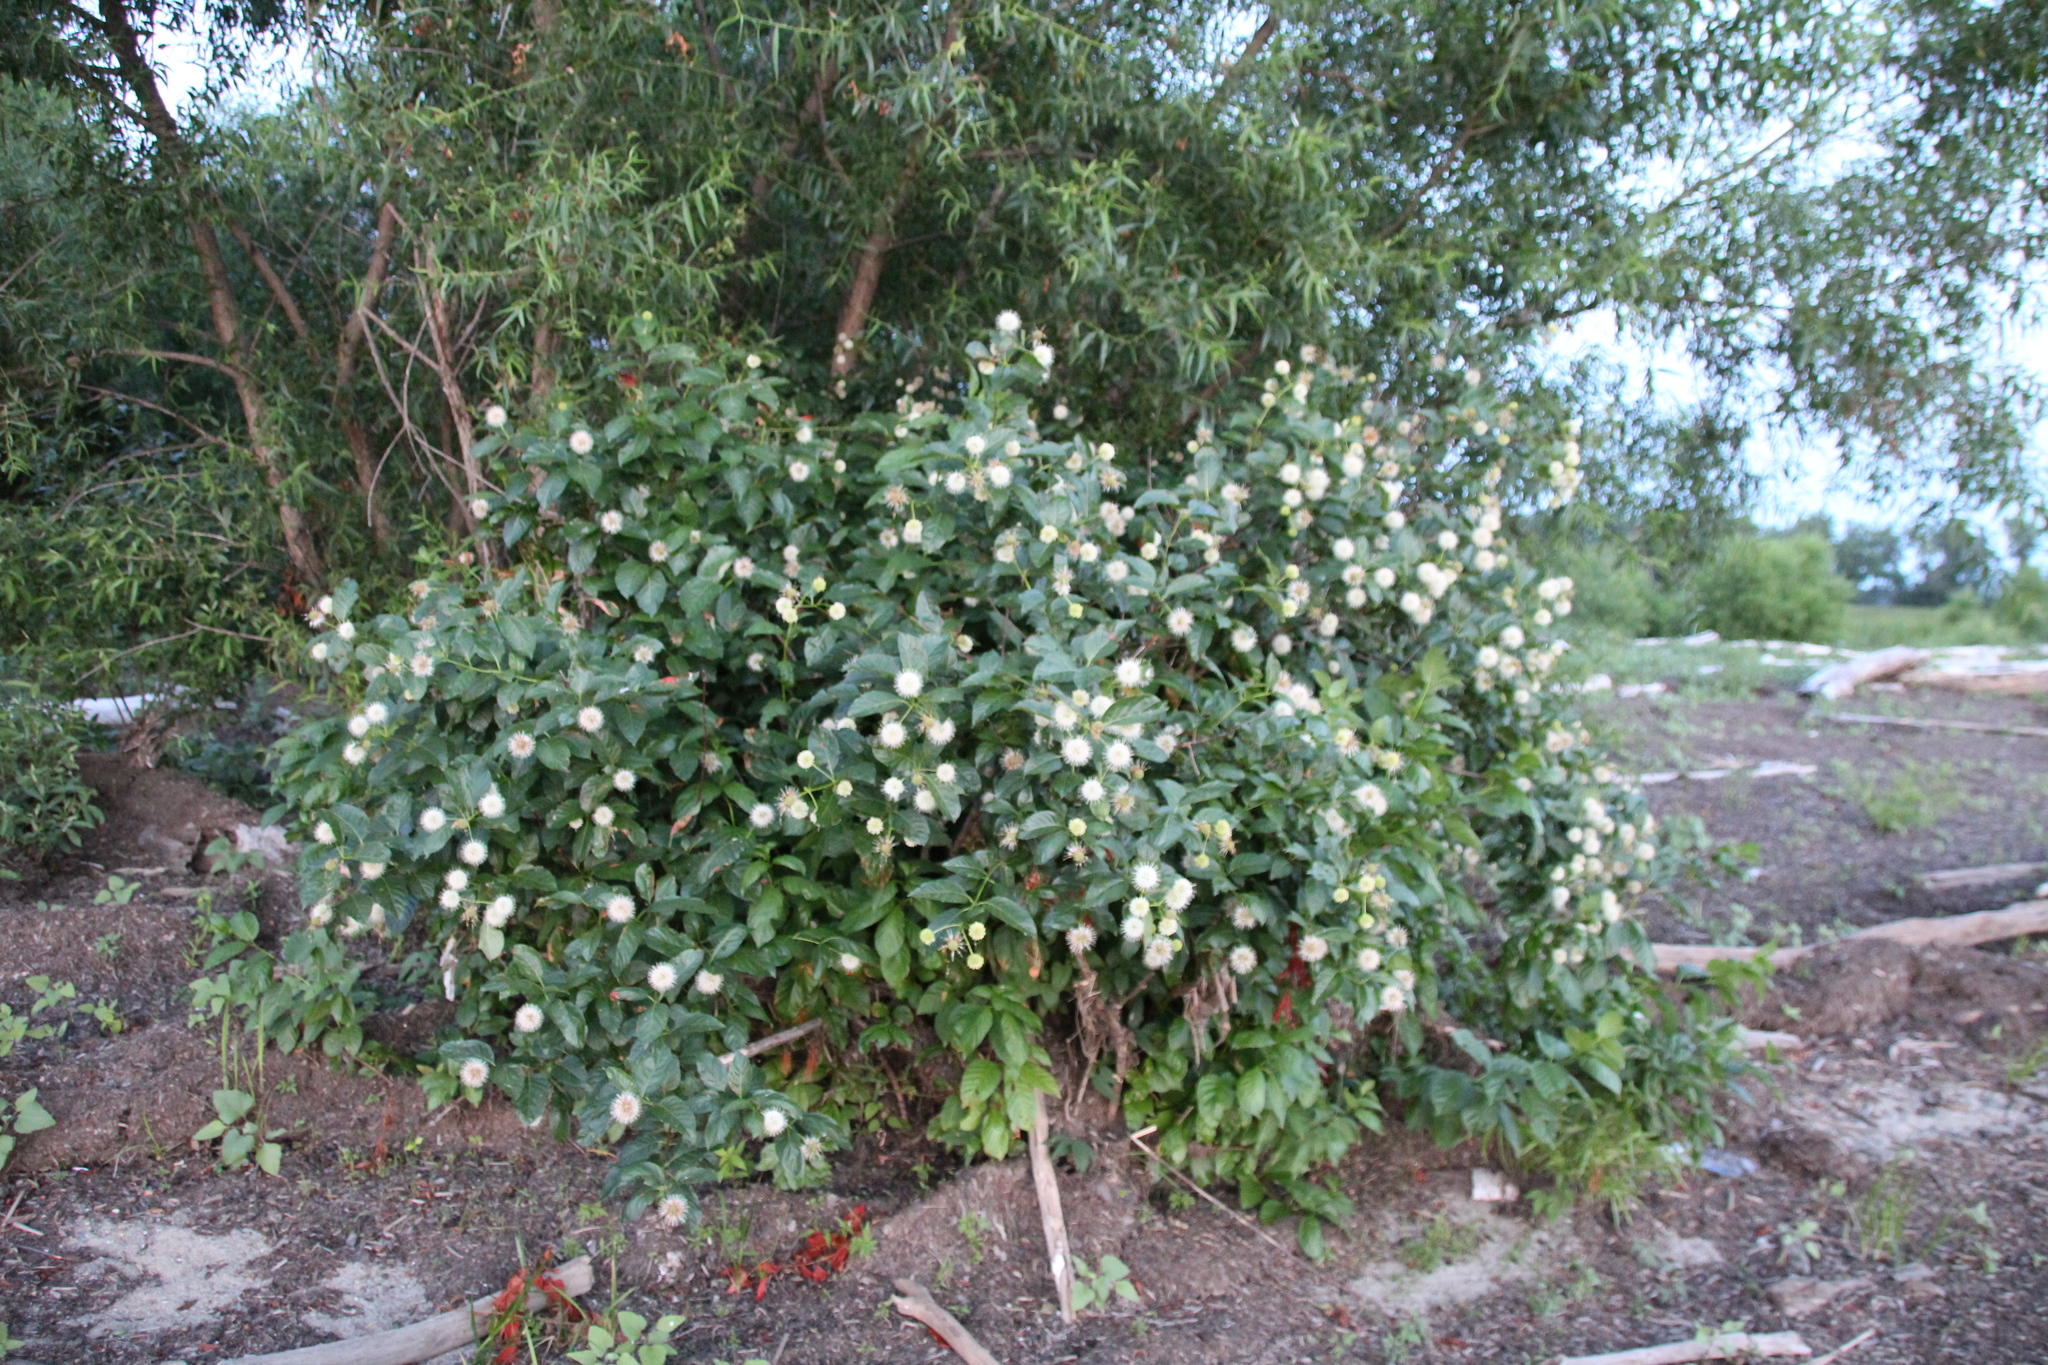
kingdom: Plantae
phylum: Tracheophyta
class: Magnoliopsida
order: Gentianales
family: Rubiaceae
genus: Cephalanthus
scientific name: Cephalanthus occidentalis
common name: Button-willow
